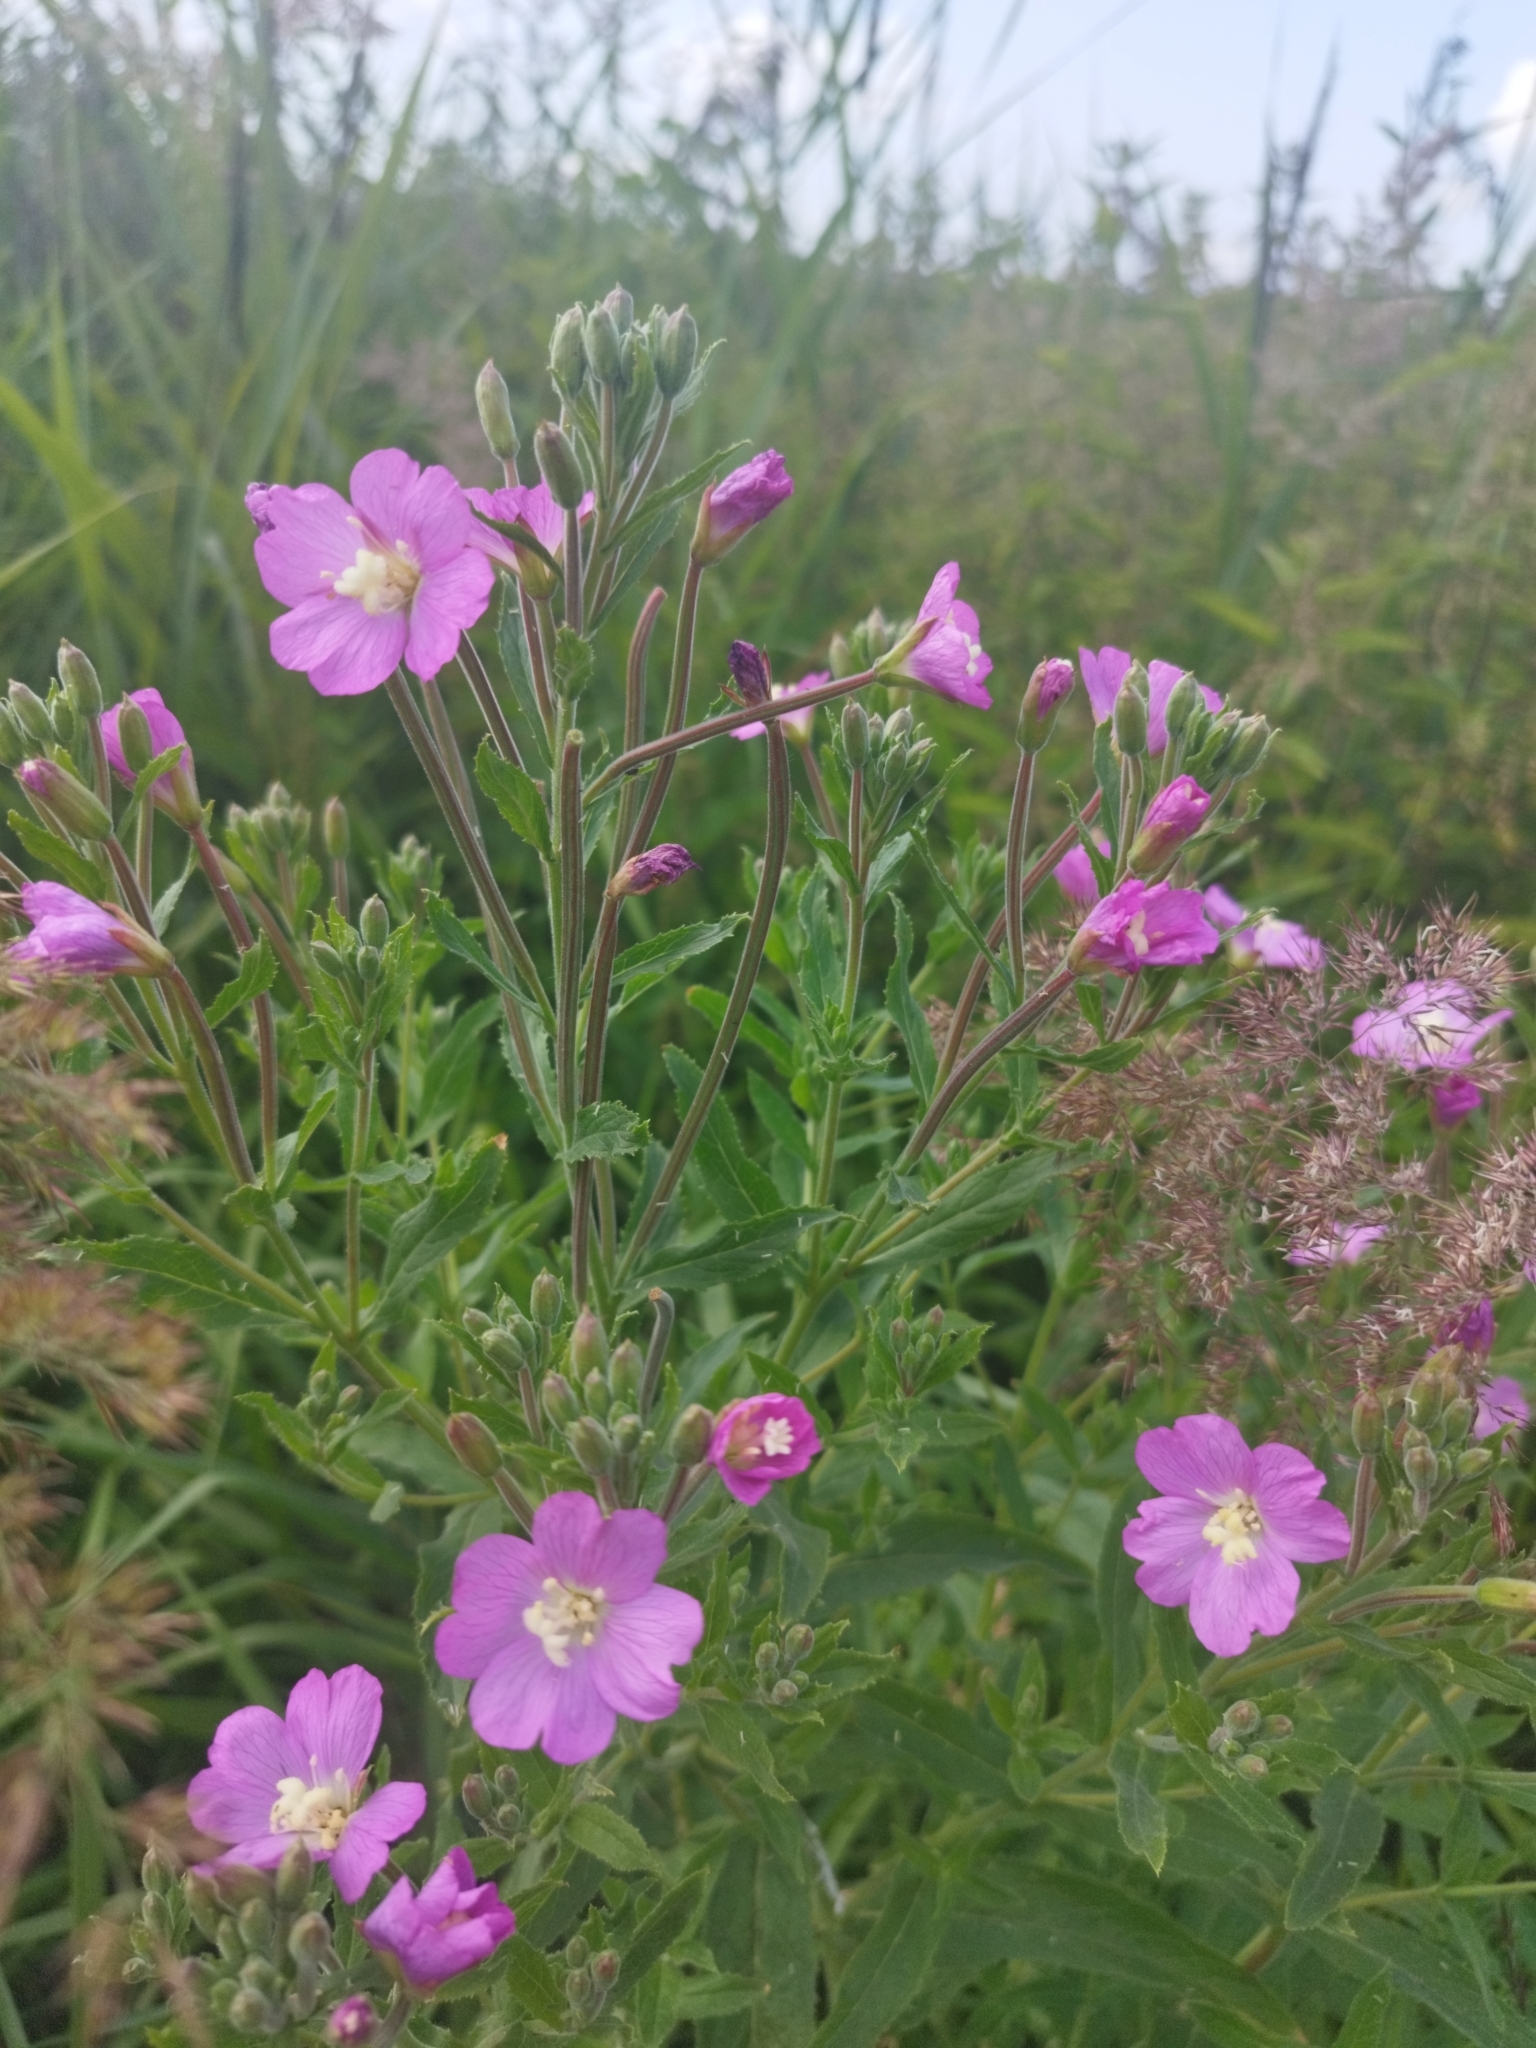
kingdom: Plantae
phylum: Tracheophyta
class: Magnoliopsida
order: Myrtales
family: Onagraceae
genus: Epilobium
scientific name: Epilobium hirsutum
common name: Great willowherb
